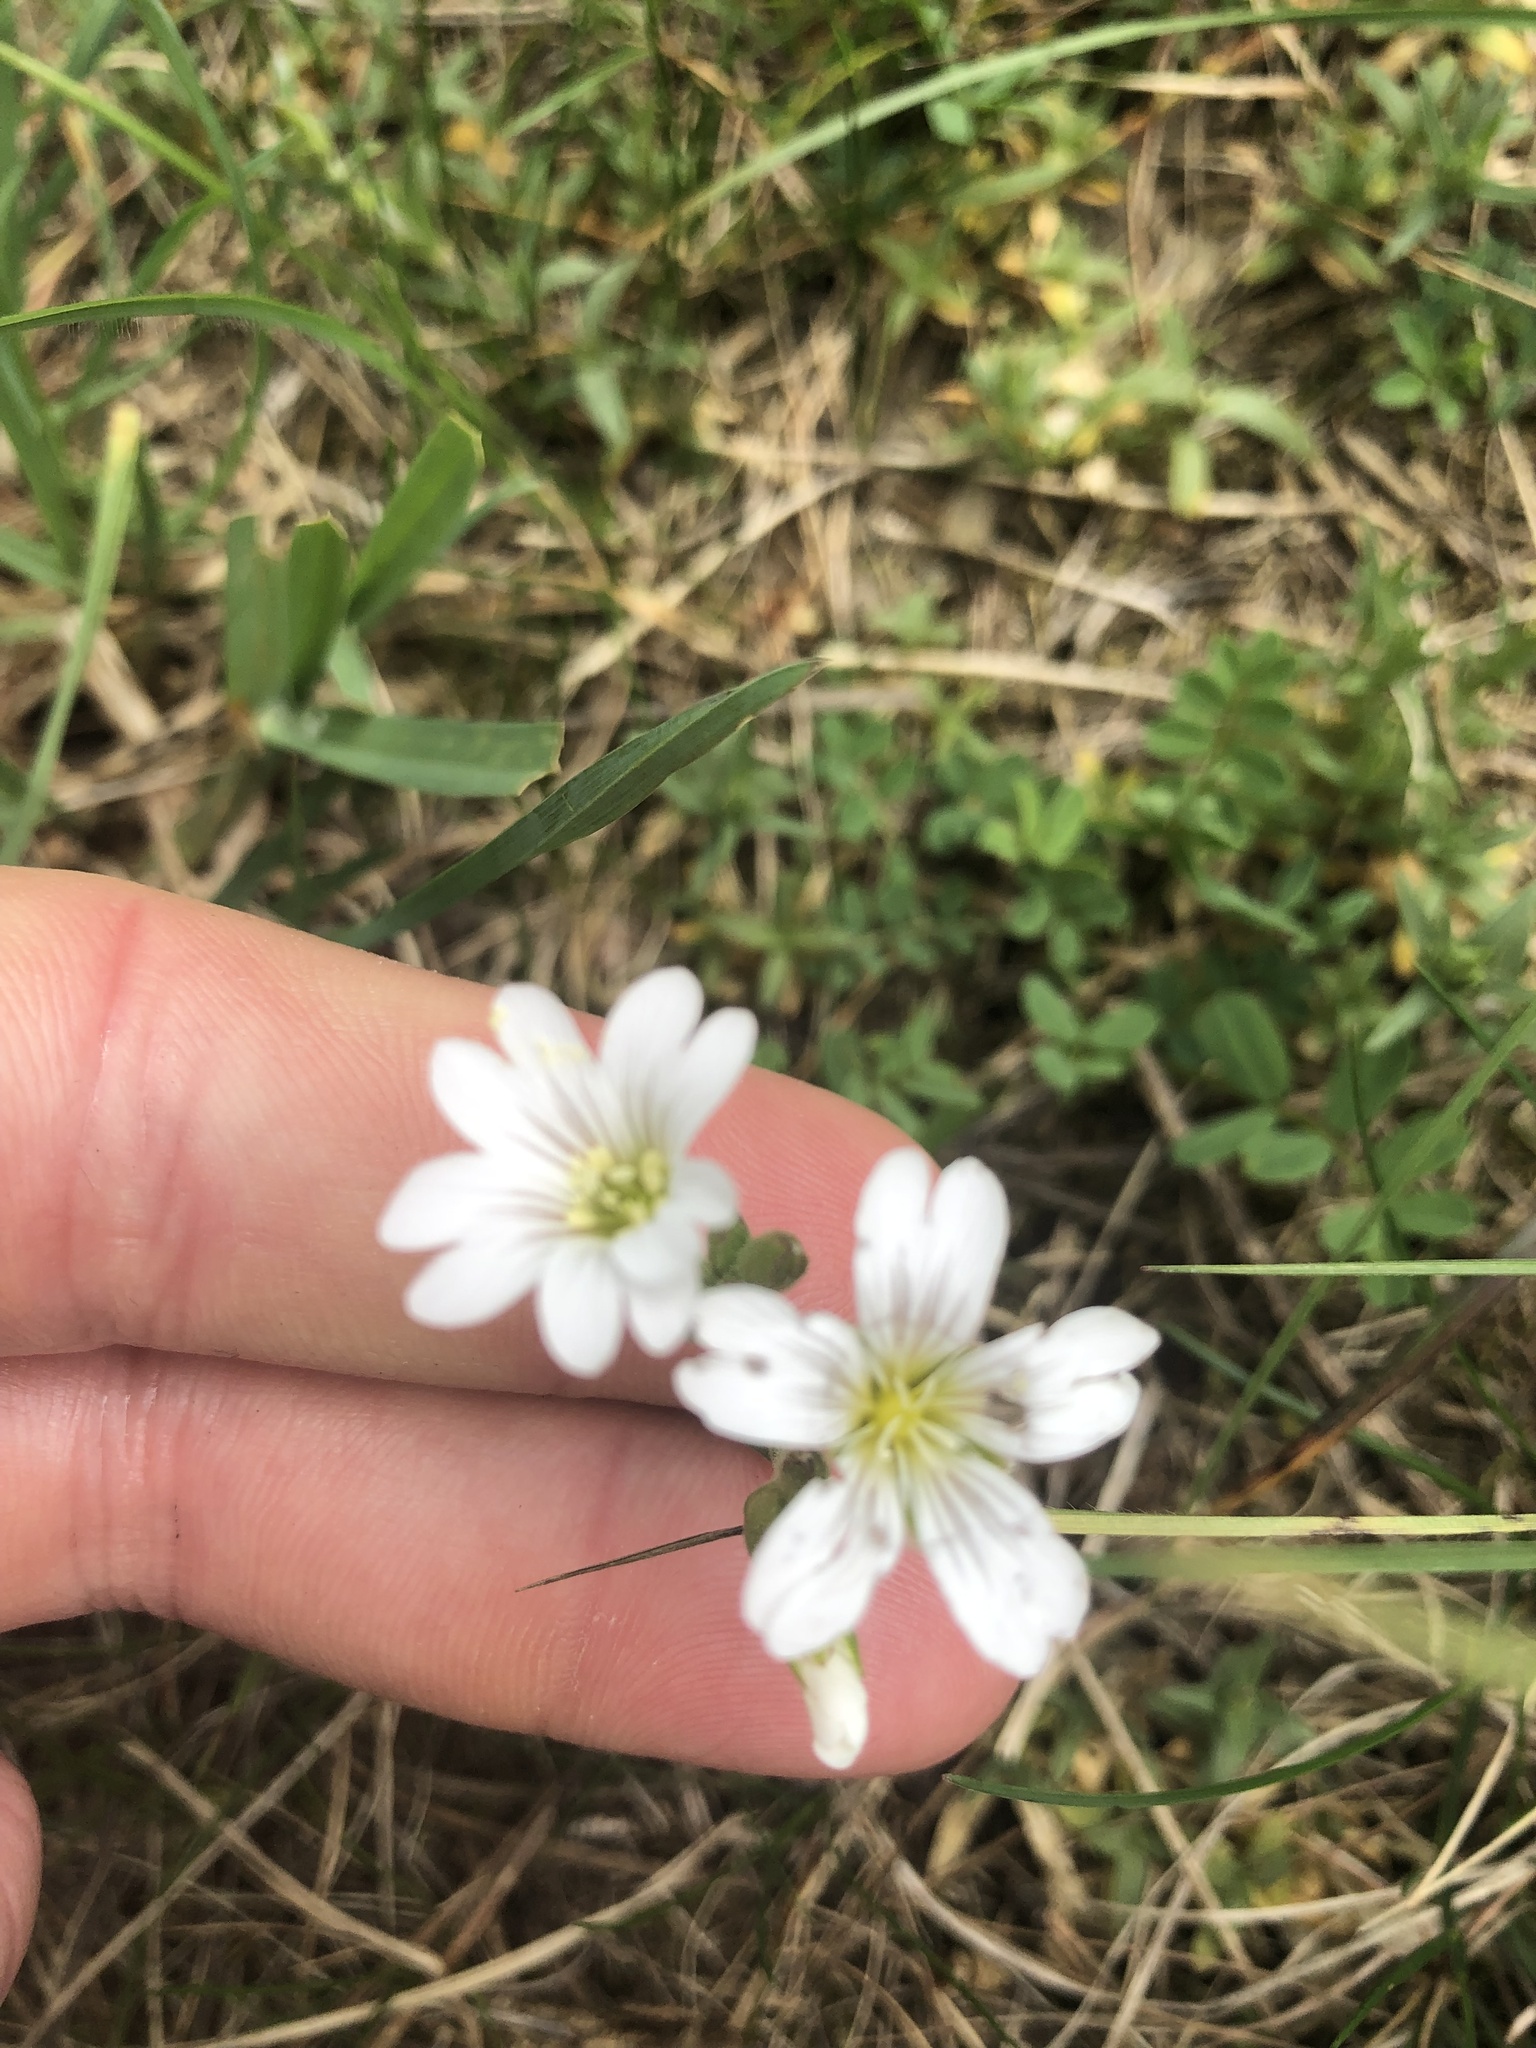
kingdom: Plantae
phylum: Tracheophyta
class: Magnoliopsida
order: Caryophyllales
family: Caryophyllaceae
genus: Cerastium
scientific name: Cerastium arvense
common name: Field mouse-ear
